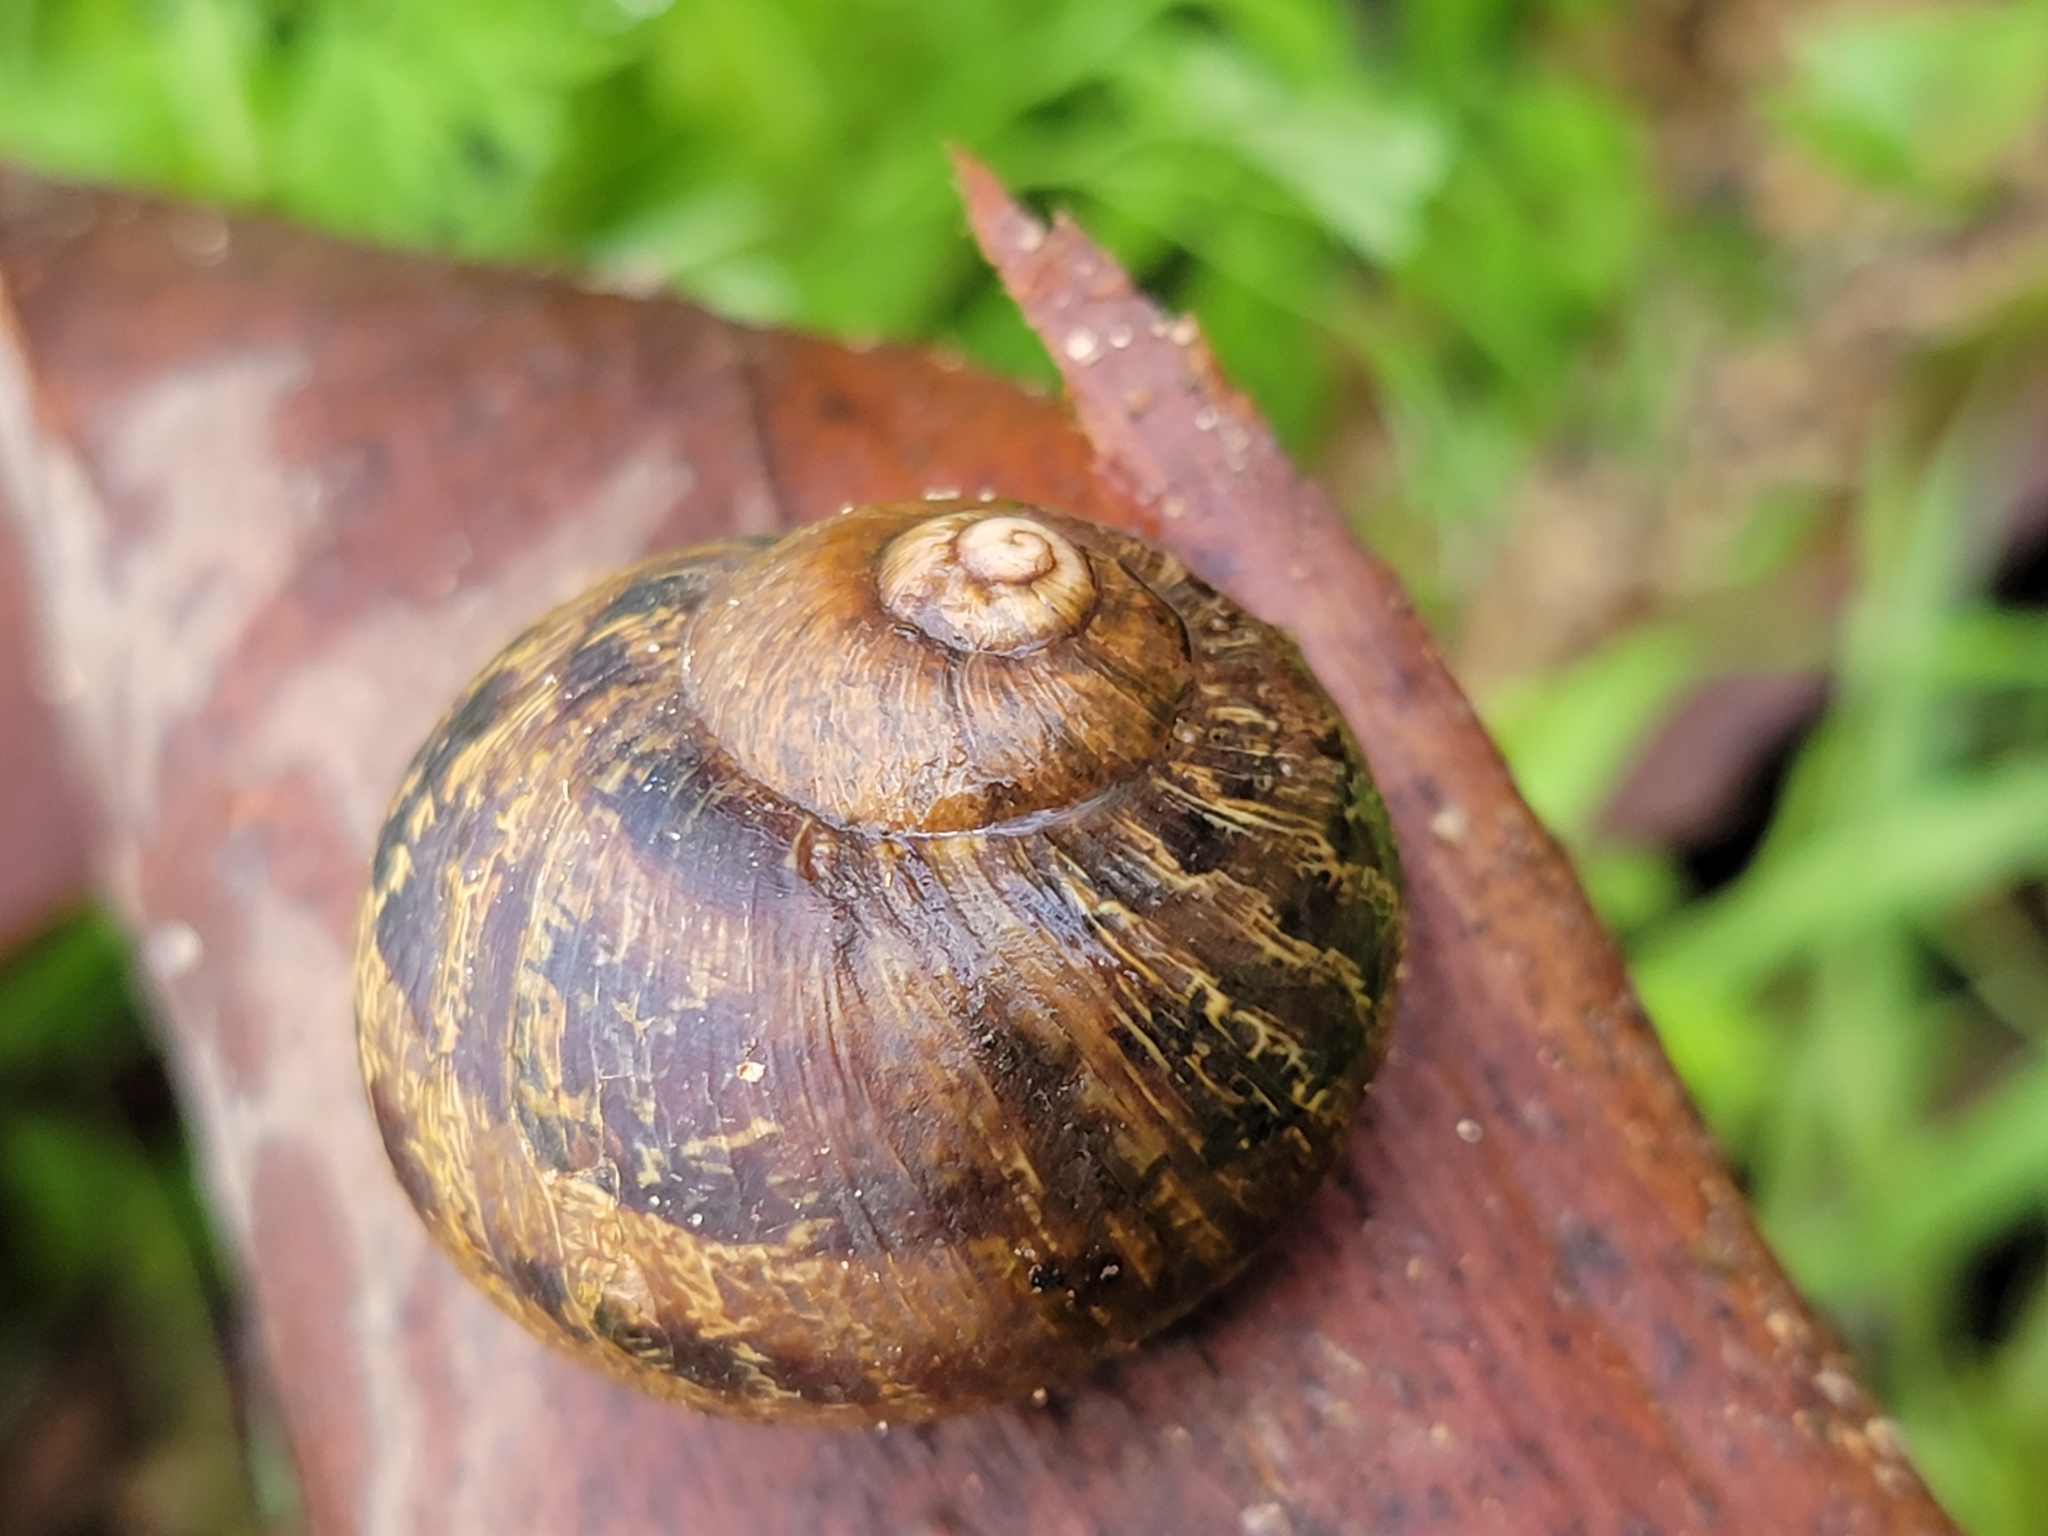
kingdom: Animalia
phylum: Mollusca
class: Gastropoda
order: Stylommatophora
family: Helicidae
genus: Cornu
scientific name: Cornu aspersum
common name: Brown garden snail
